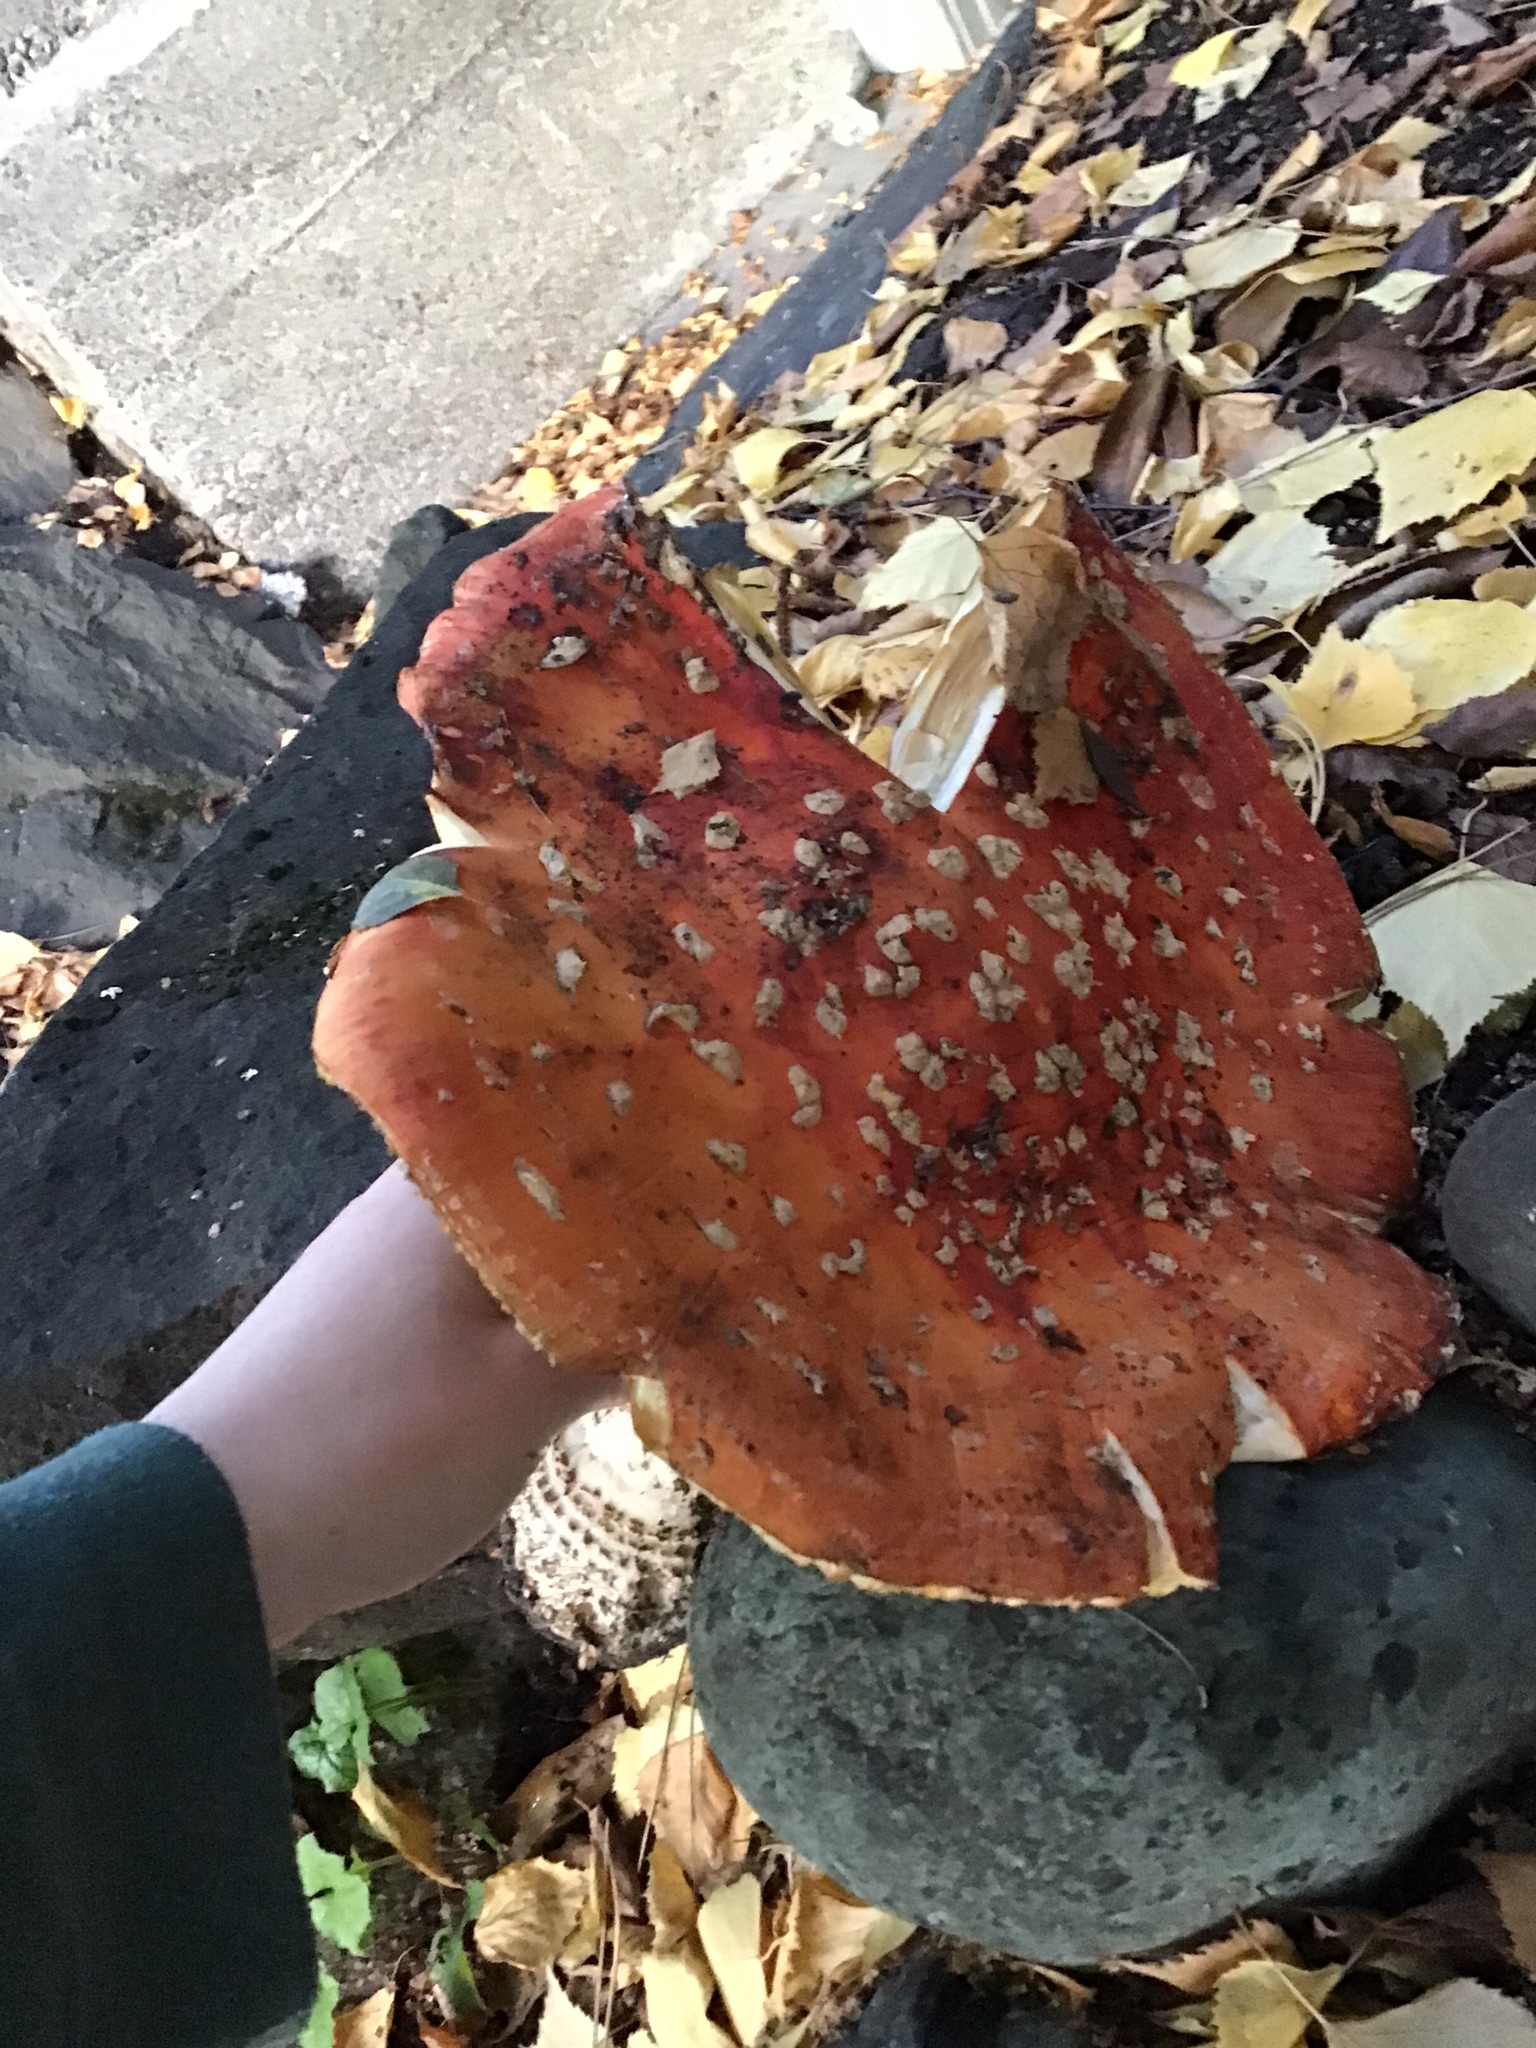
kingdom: Fungi
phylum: Basidiomycota
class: Agaricomycetes
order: Agaricales
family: Amanitaceae
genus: Amanita
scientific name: Amanita muscaria
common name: Fly agaric
